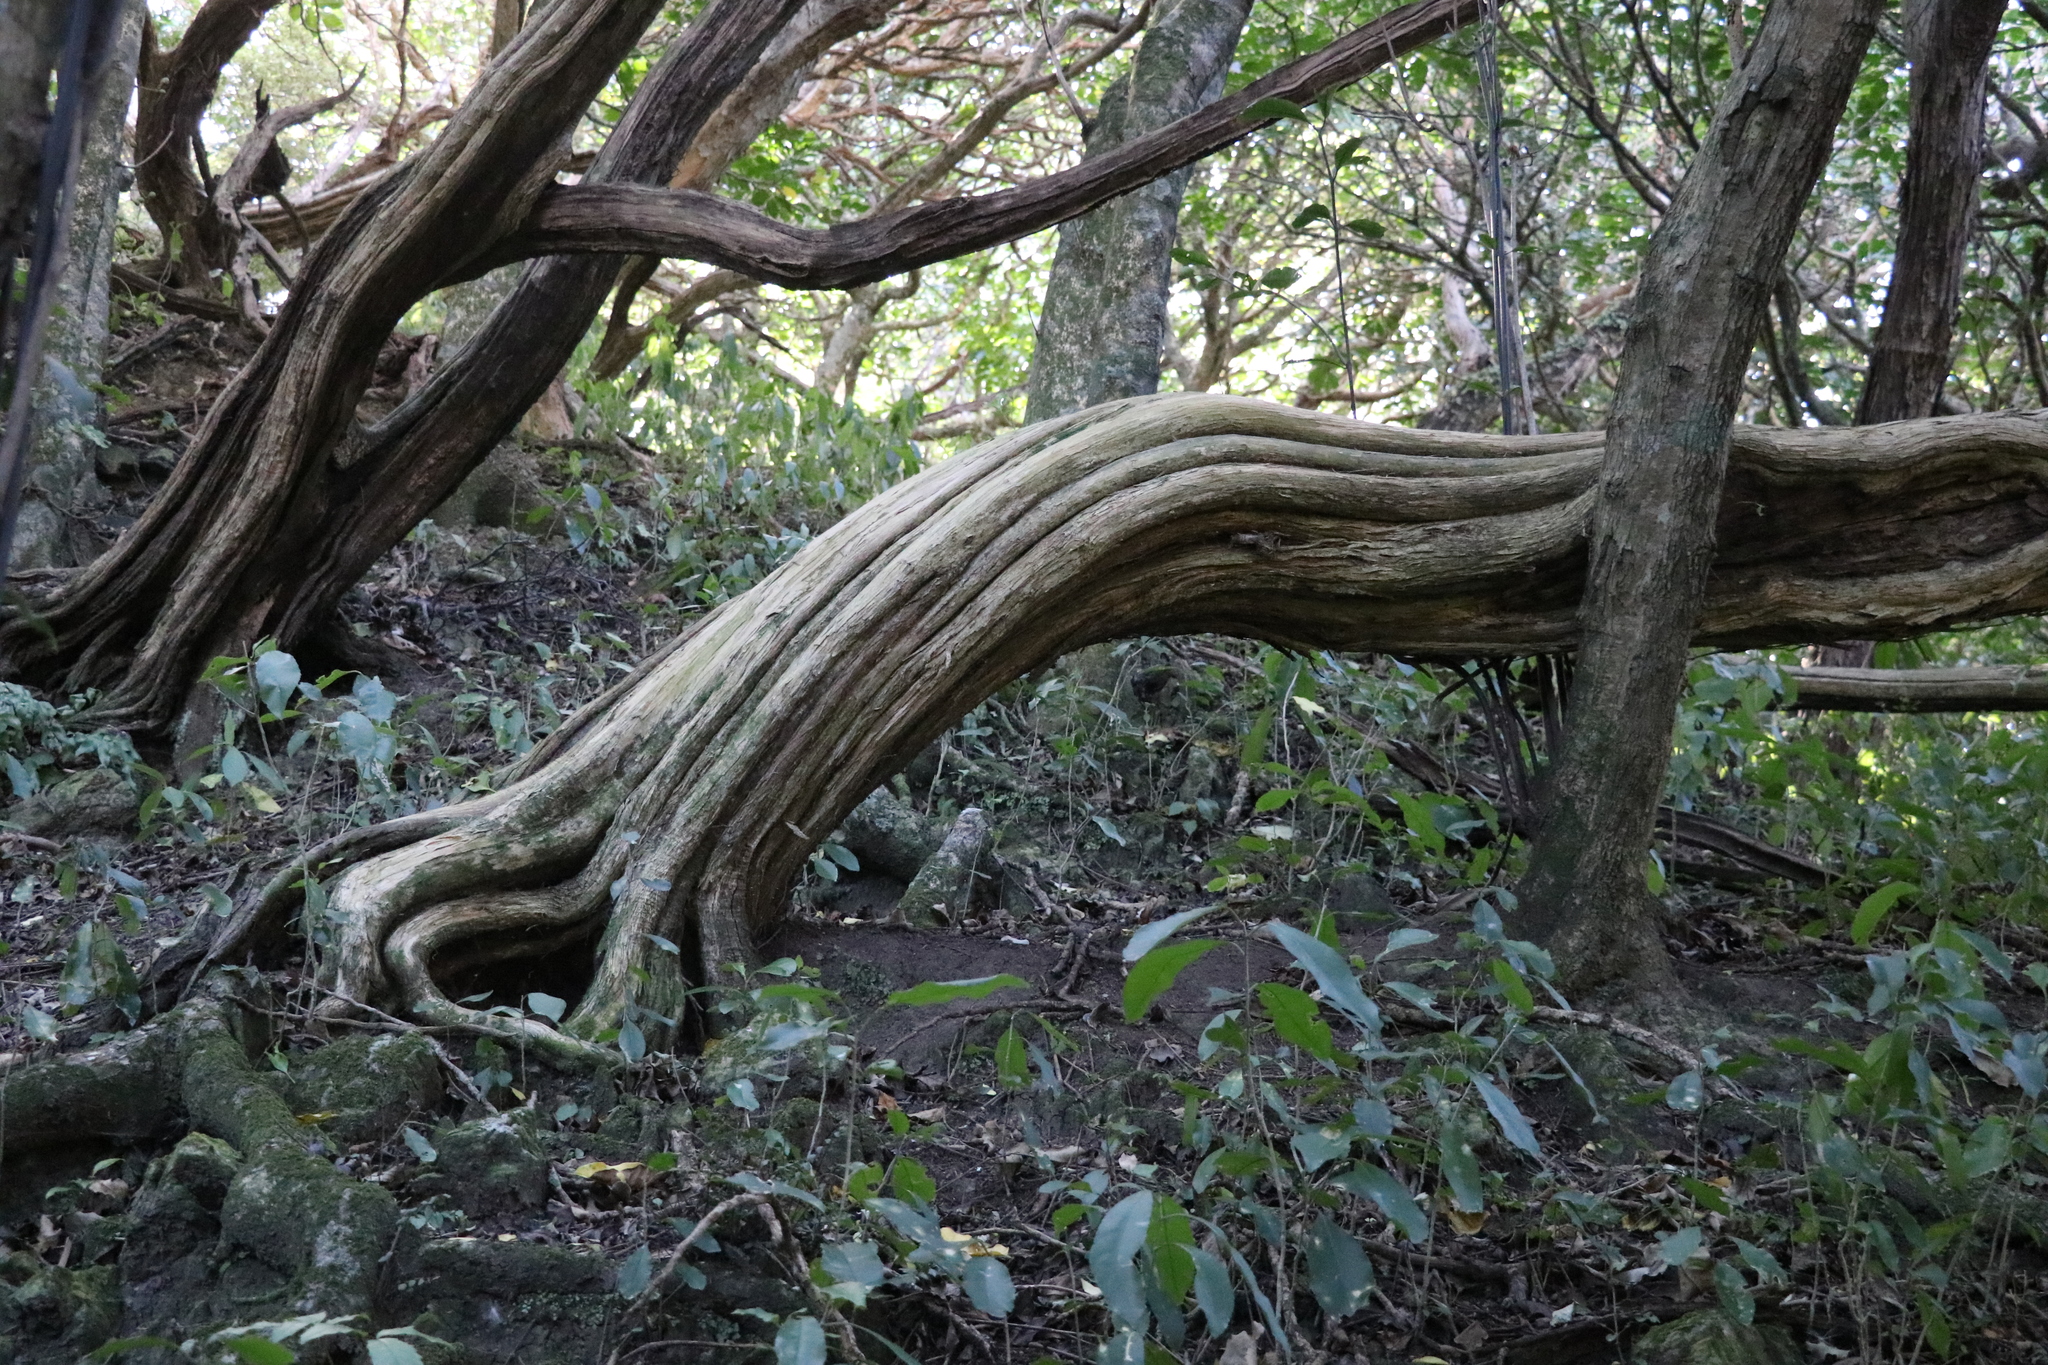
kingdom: Plantae
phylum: Tracheophyta
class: Magnoliopsida
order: Asterales
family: Asteraceae
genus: Olearia
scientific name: Olearia paniculata
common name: Akiraho
